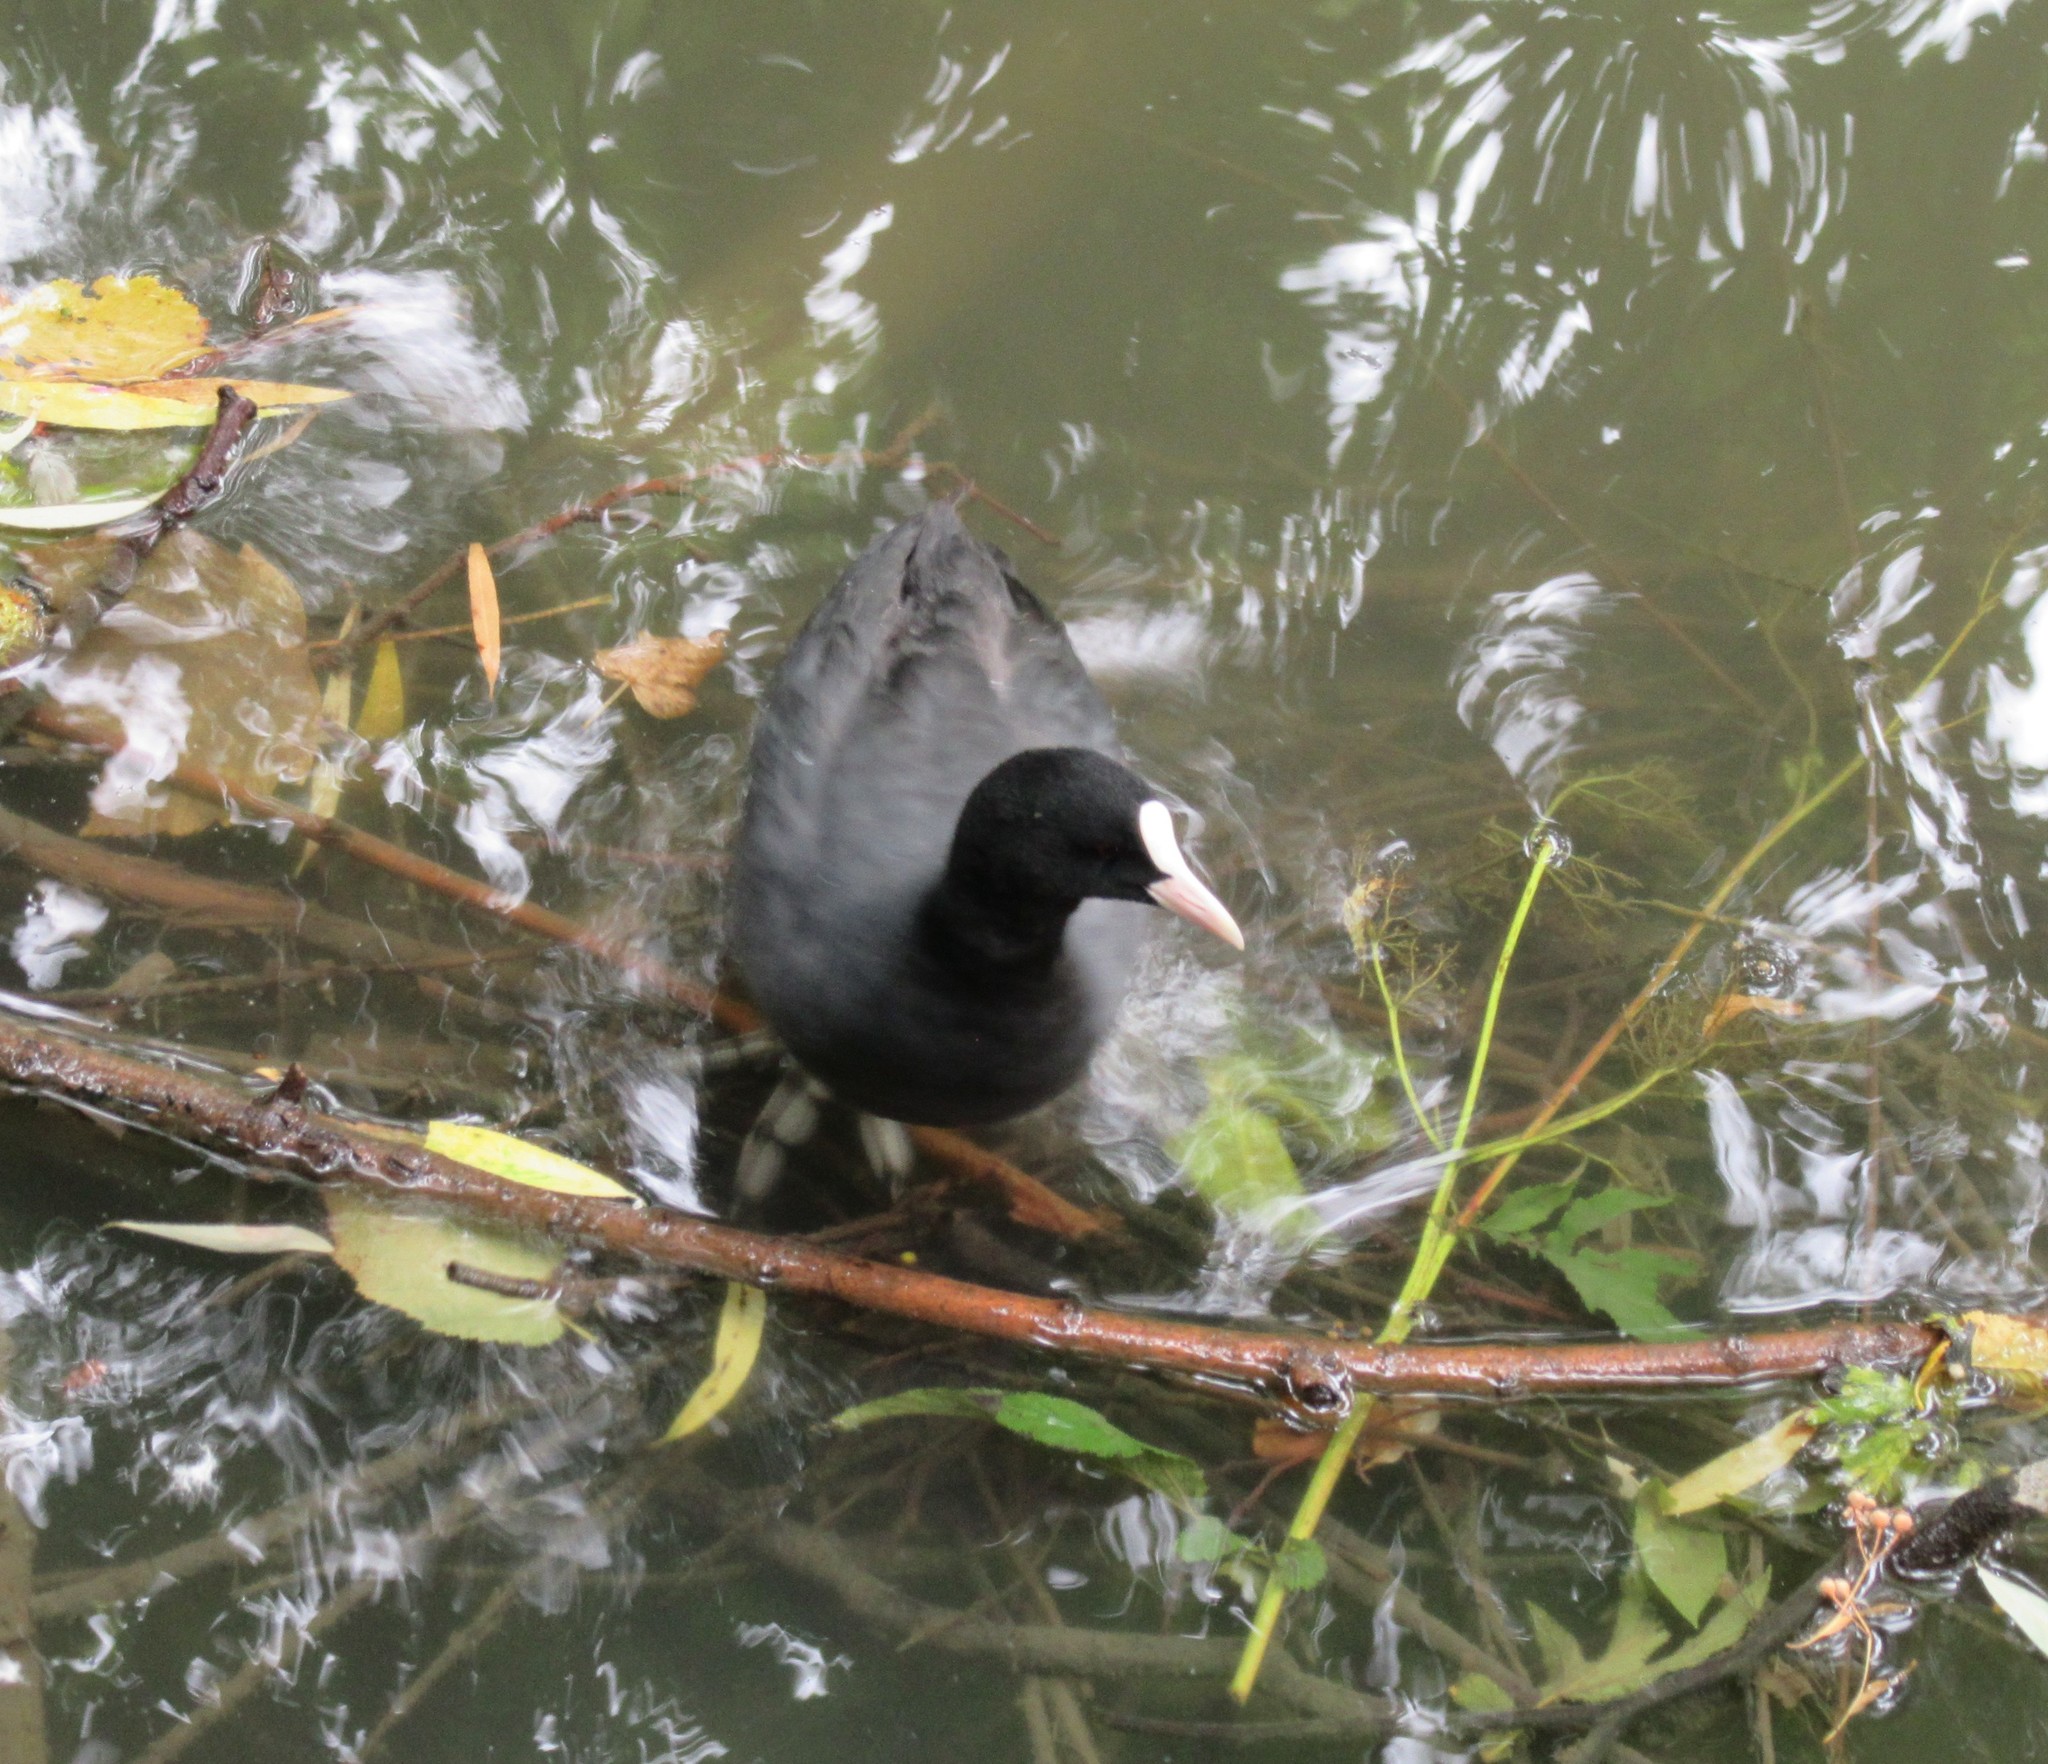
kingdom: Animalia
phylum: Chordata
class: Aves
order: Gruiformes
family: Rallidae
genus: Fulica
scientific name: Fulica atra
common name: Eurasian coot
